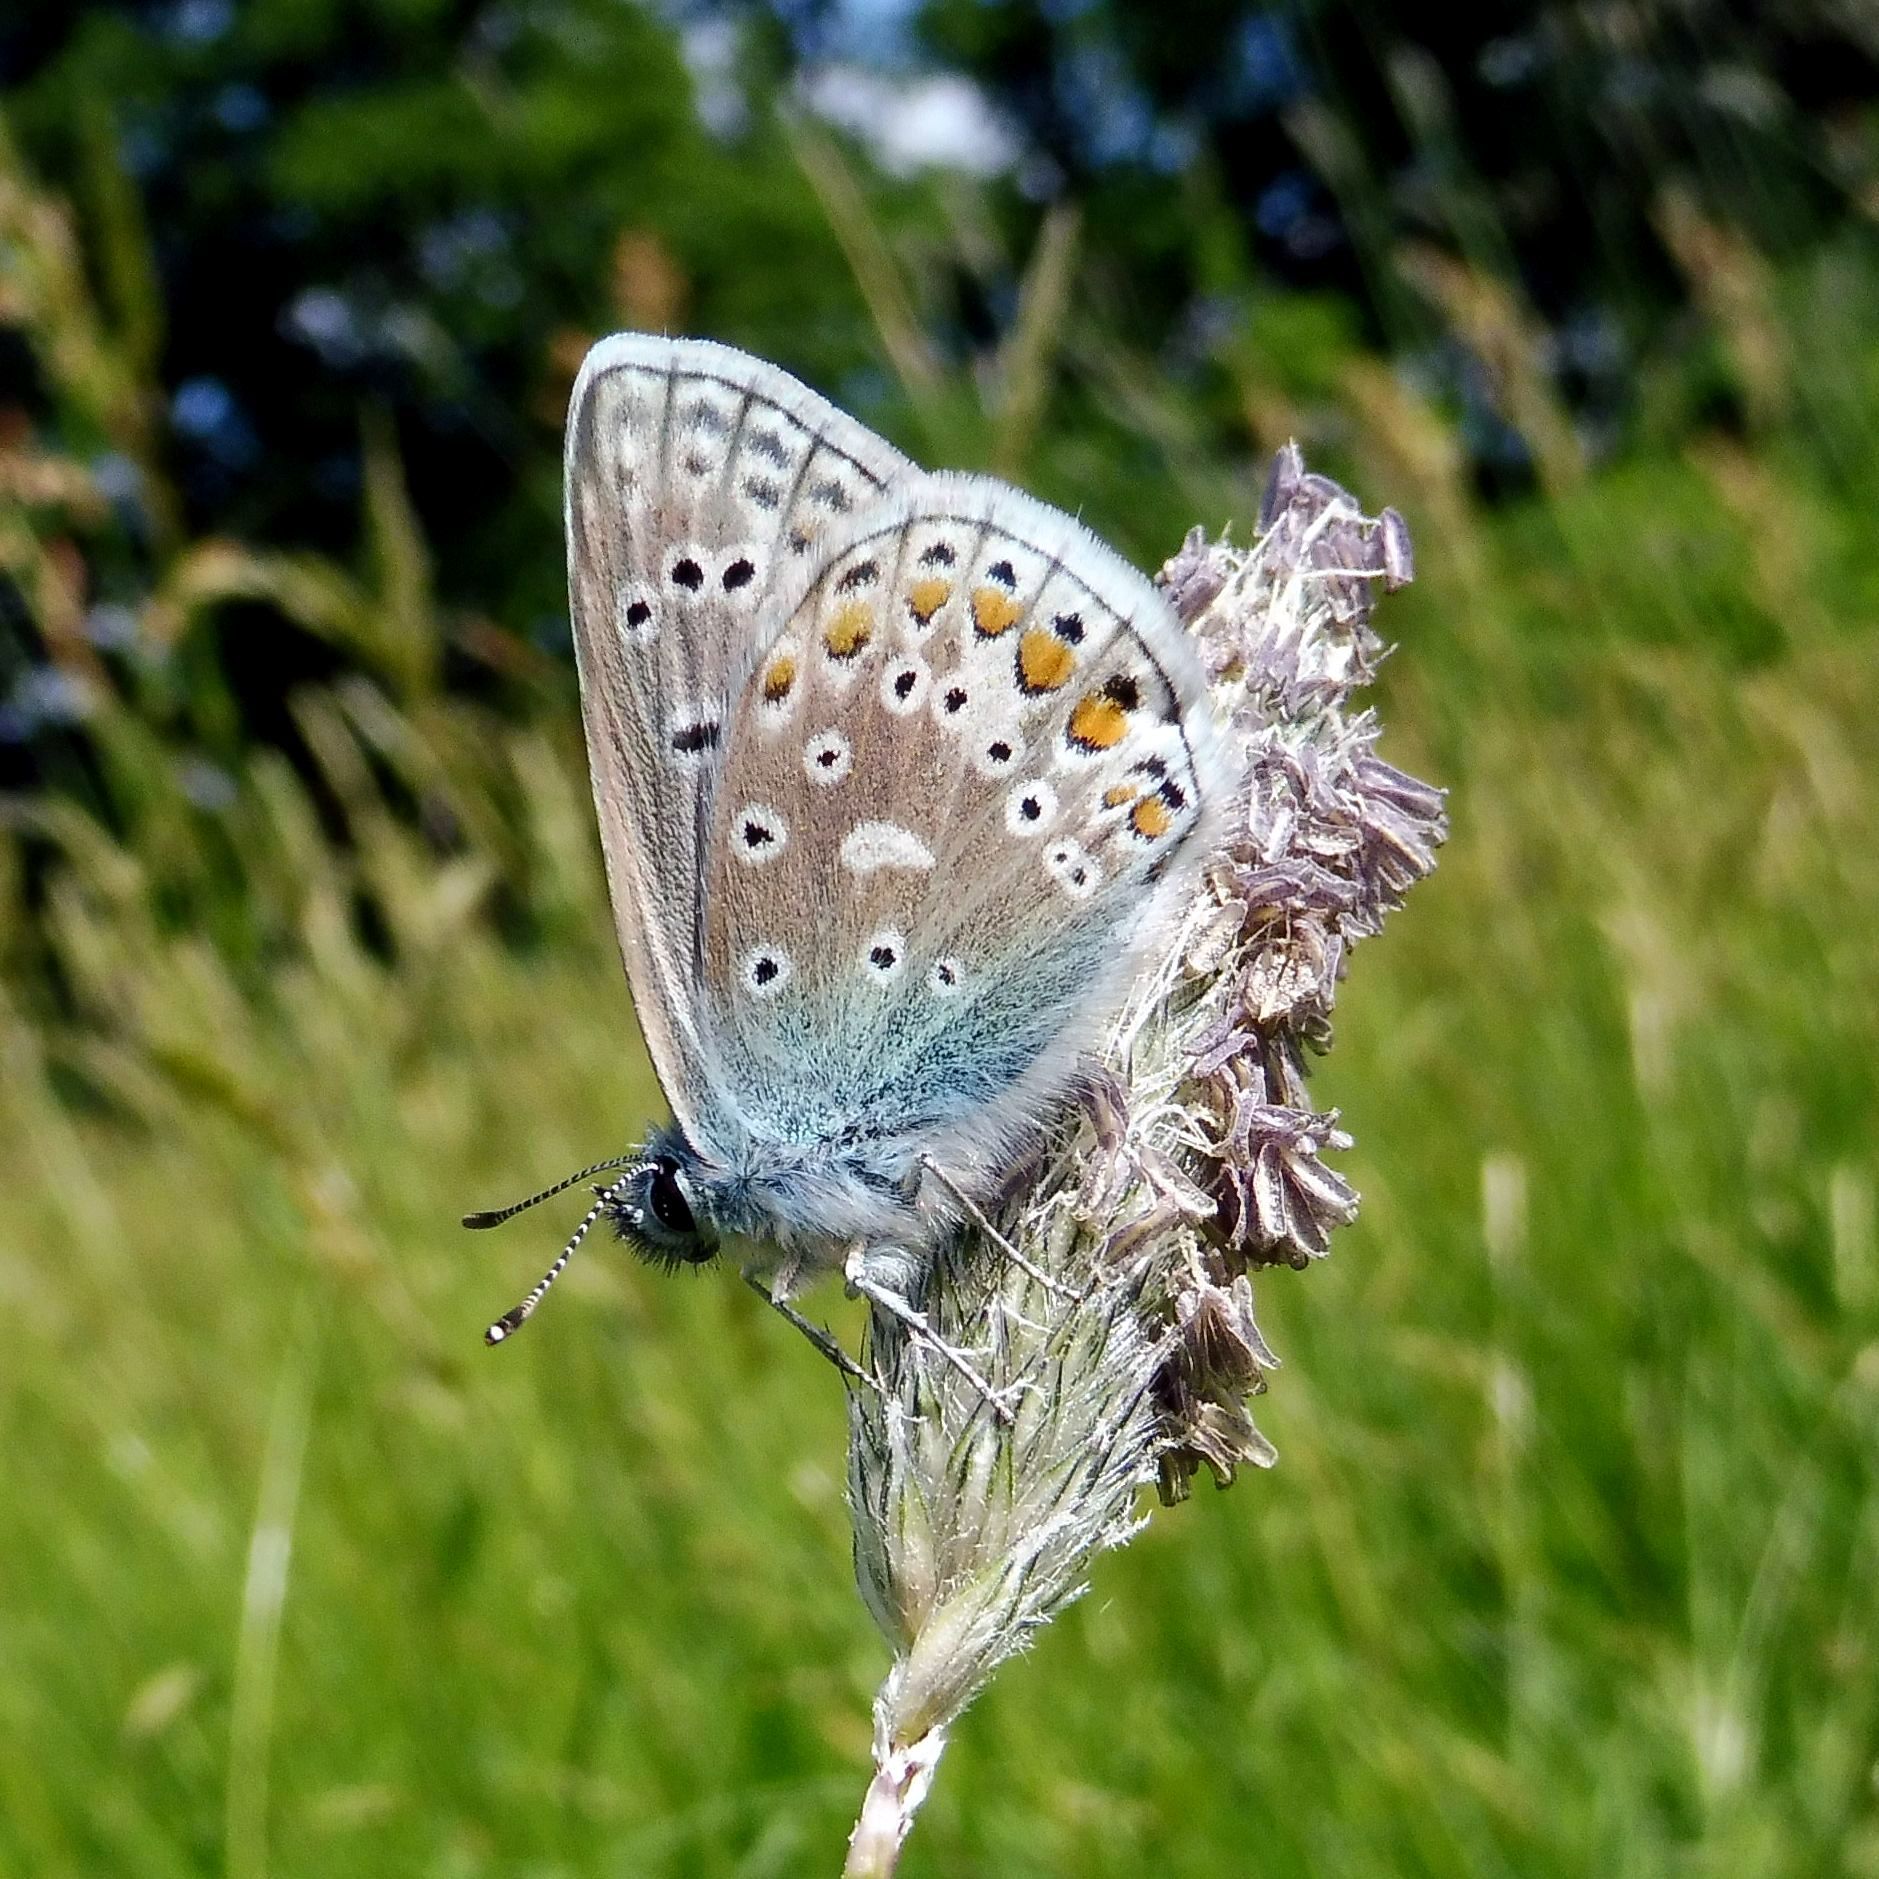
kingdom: Animalia
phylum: Arthropoda
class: Insecta
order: Lepidoptera
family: Lycaenidae
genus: Polyommatus
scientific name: Polyommatus icarus
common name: Common blue
